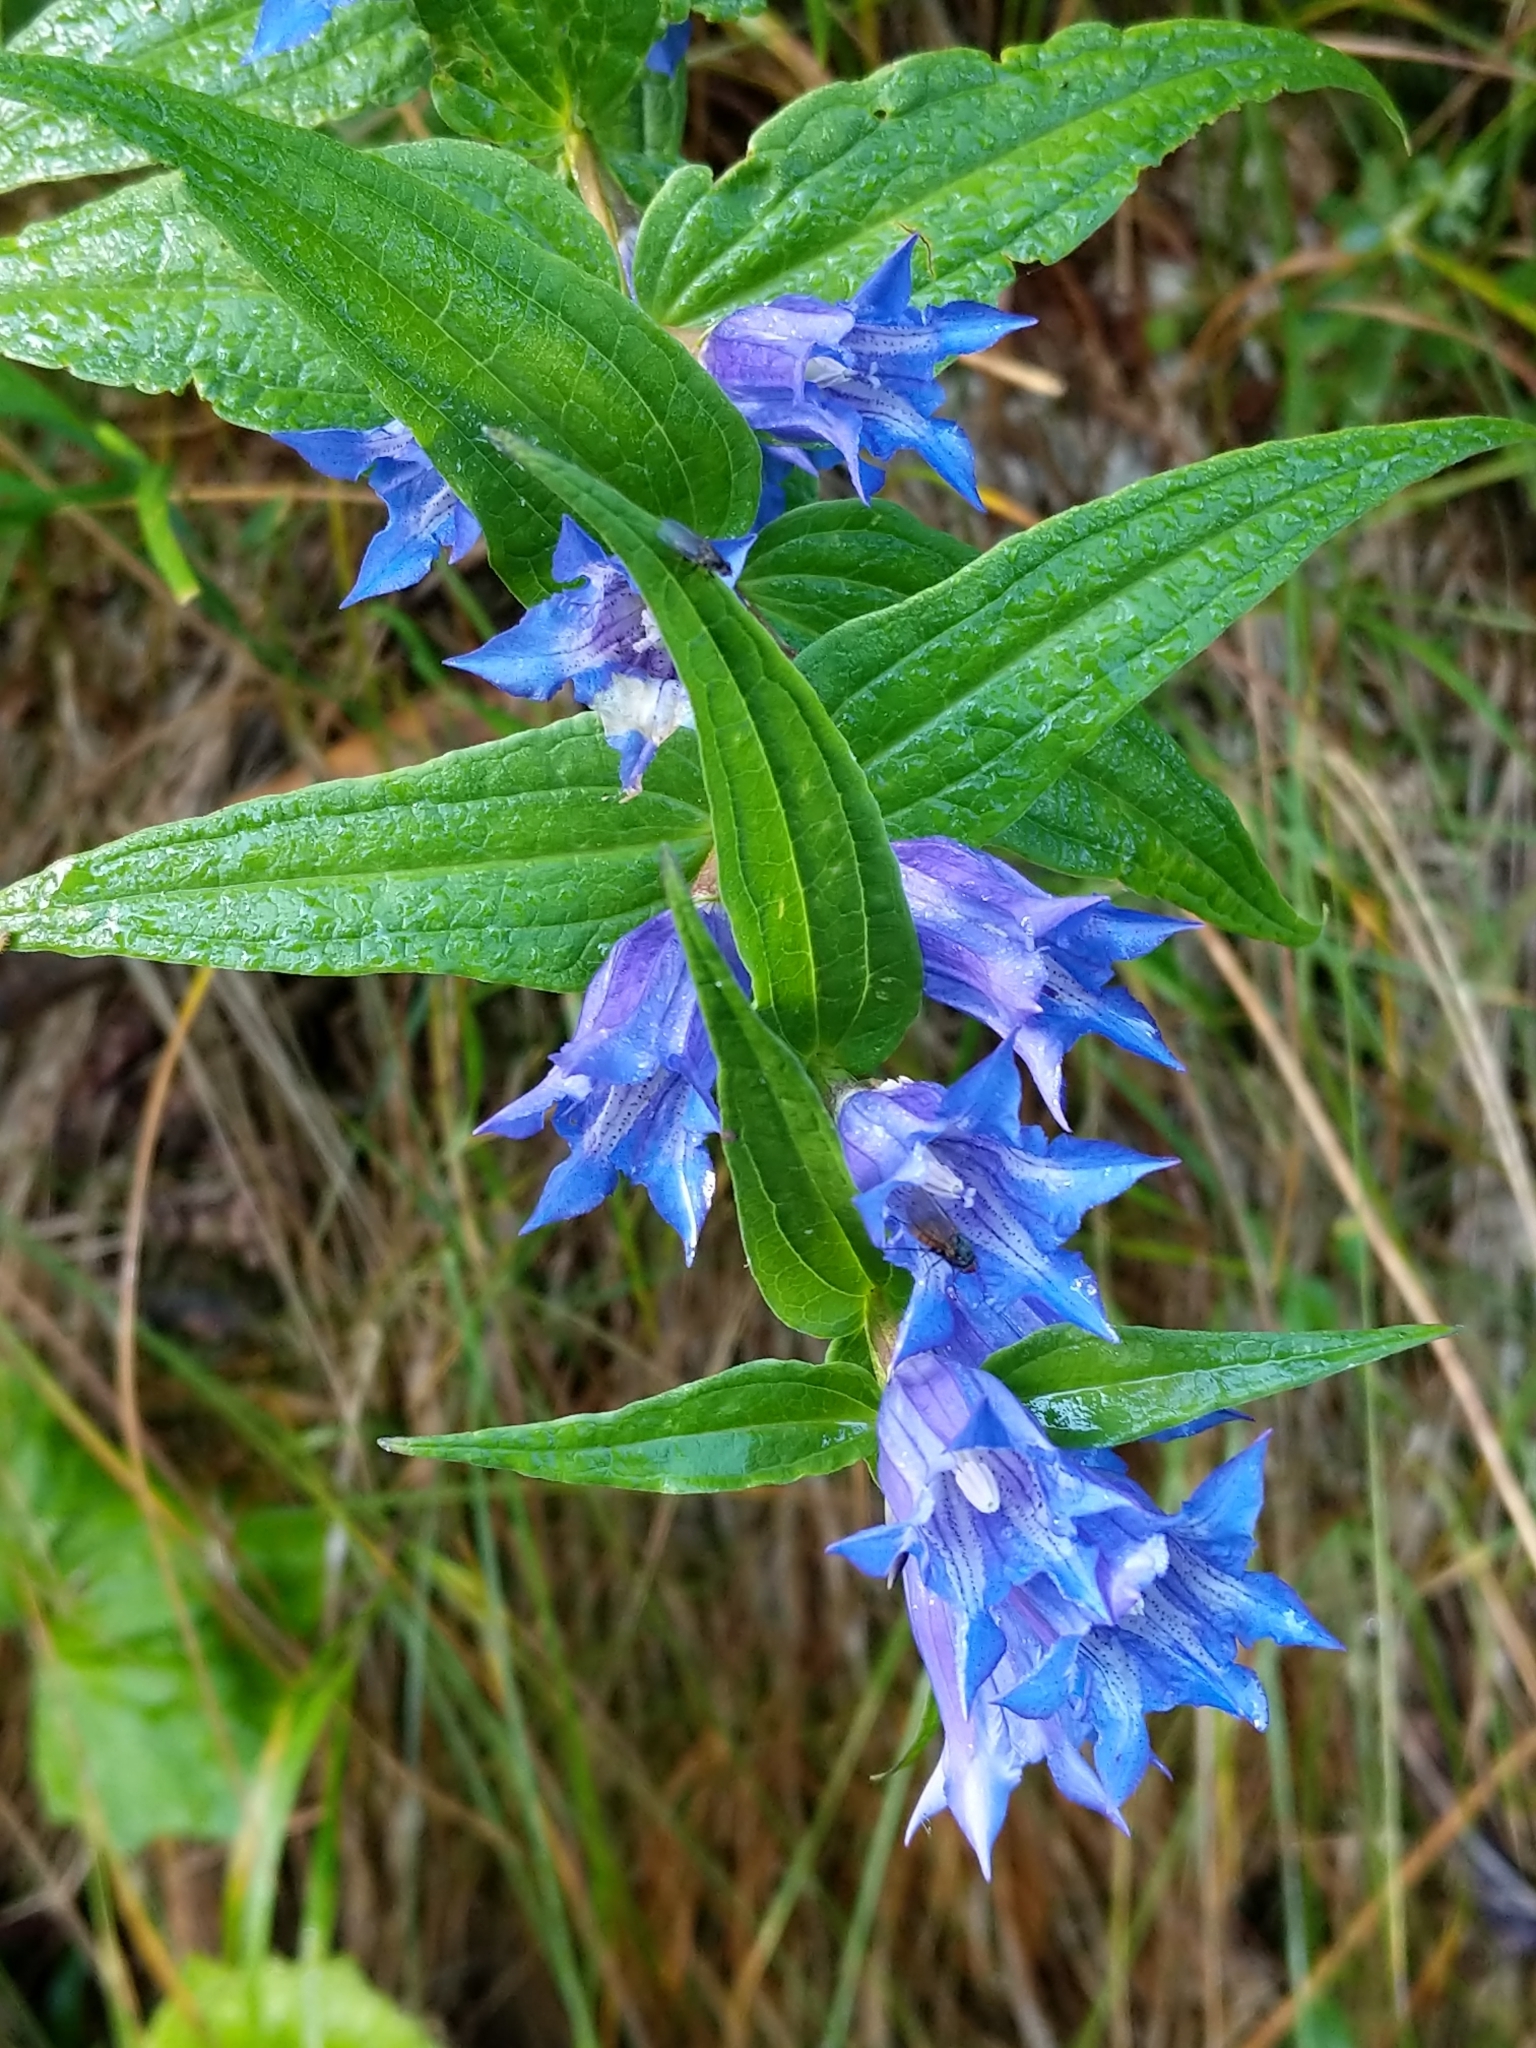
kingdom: Plantae
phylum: Tracheophyta
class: Magnoliopsida
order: Gentianales
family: Gentianaceae
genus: Gentiana
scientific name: Gentiana asclepiadea
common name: Willow gentian
